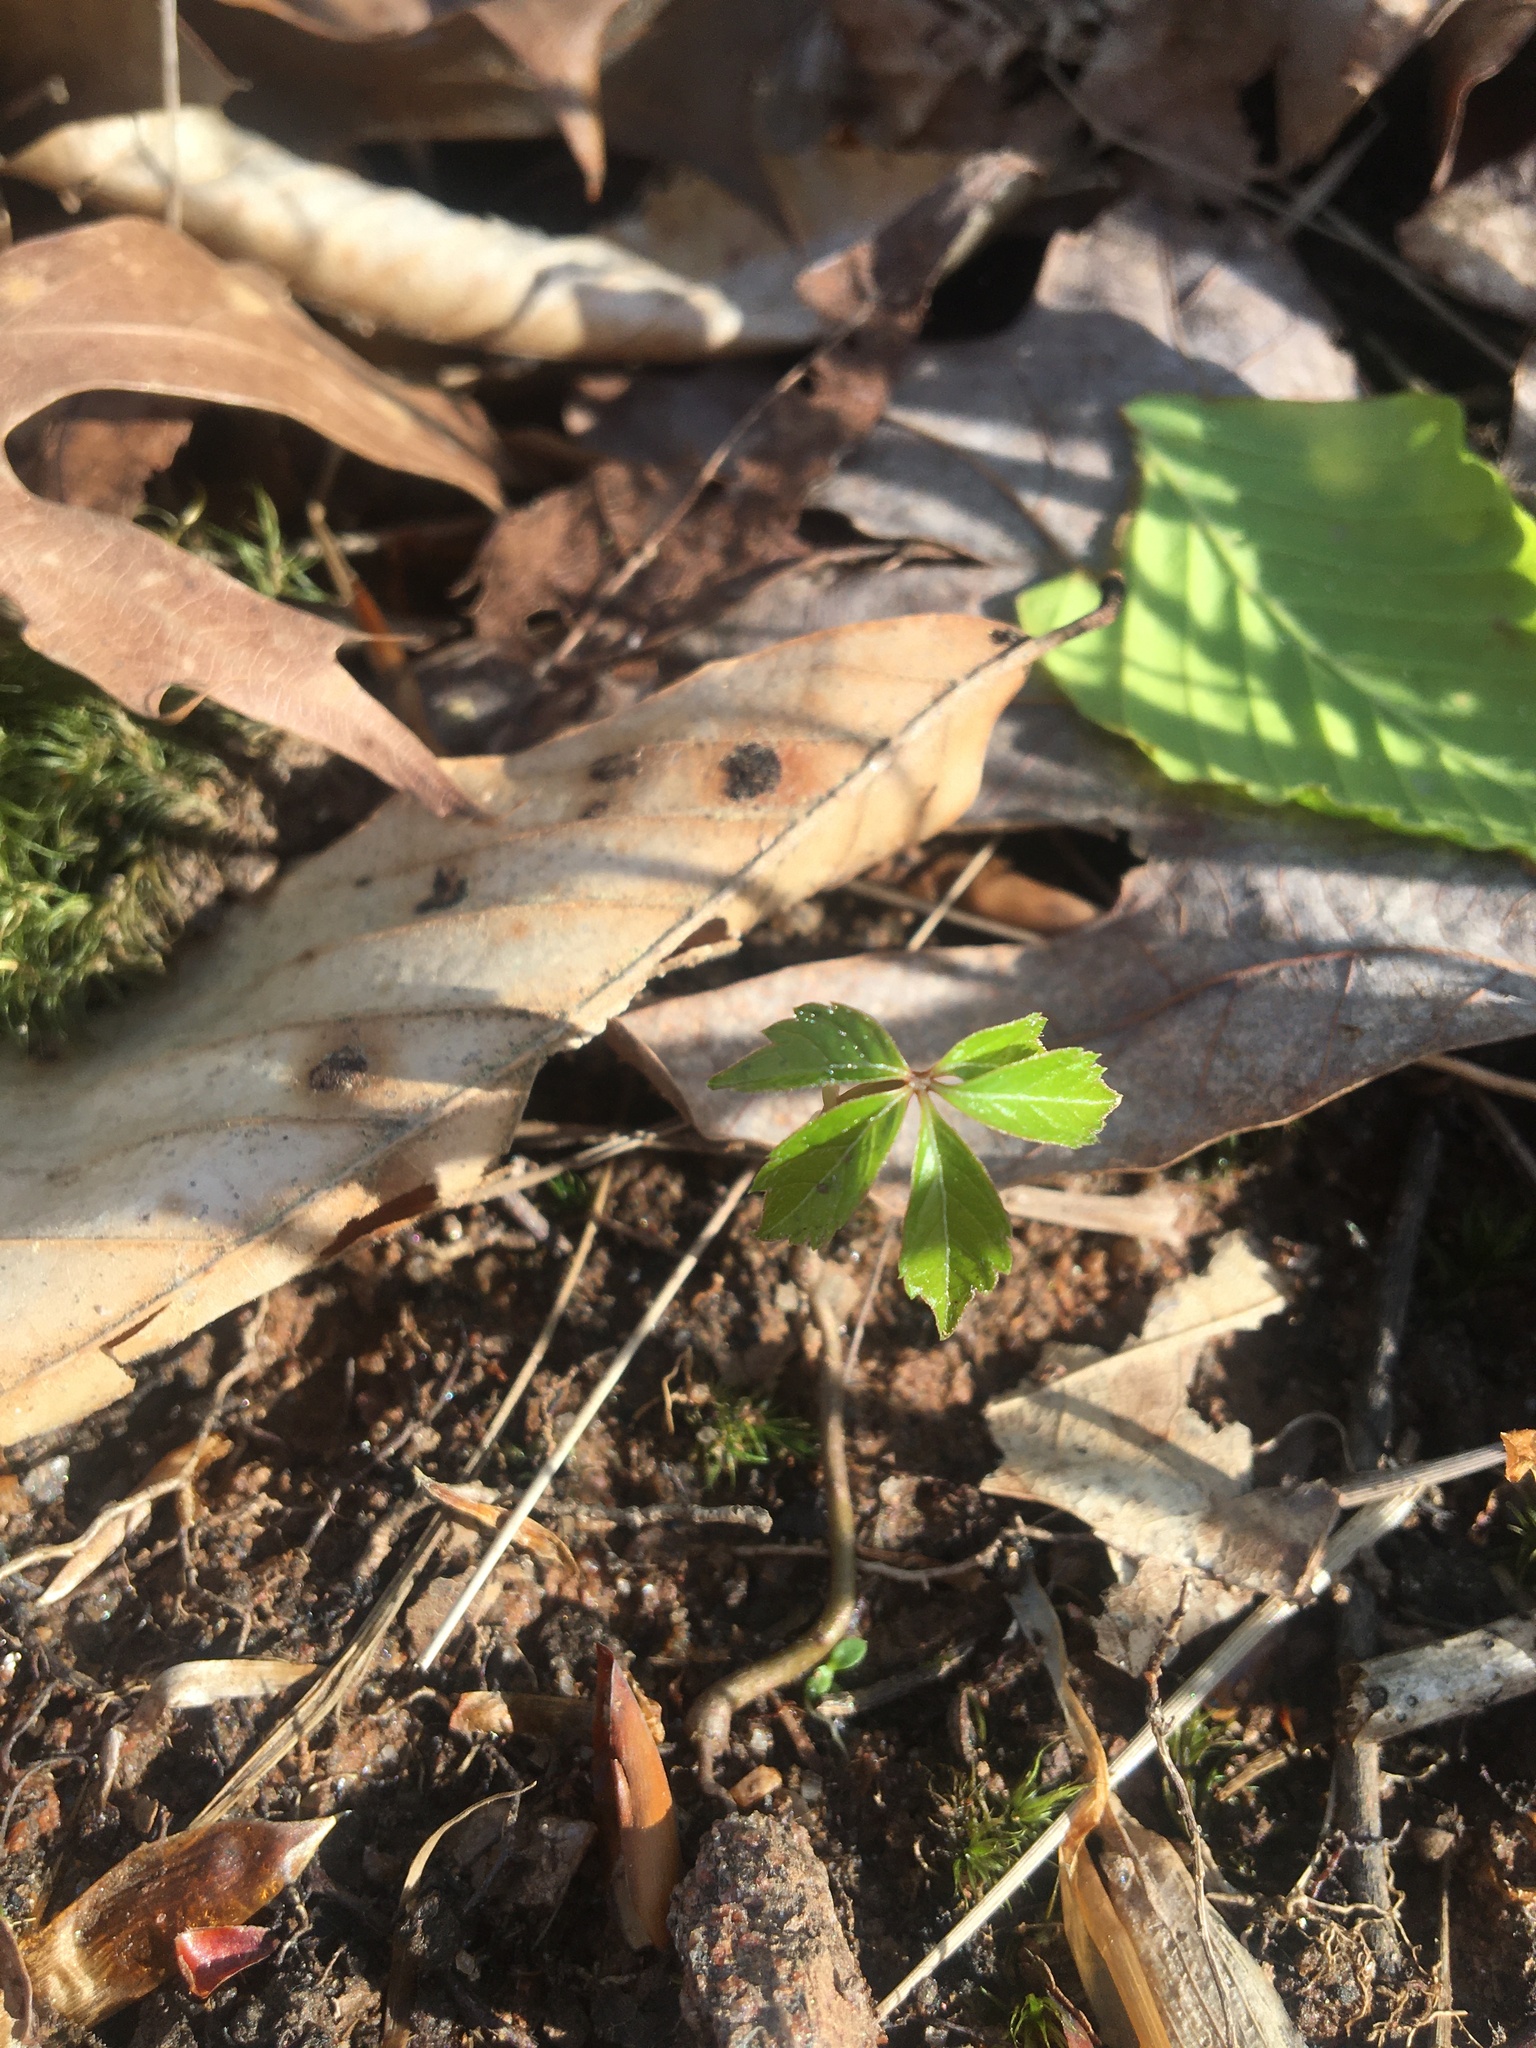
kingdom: Plantae
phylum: Tracheophyta
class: Magnoliopsida
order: Vitales
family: Vitaceae
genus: Parthenocissus
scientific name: Parthenocissus quinquefolia
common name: Virginia-creeper
